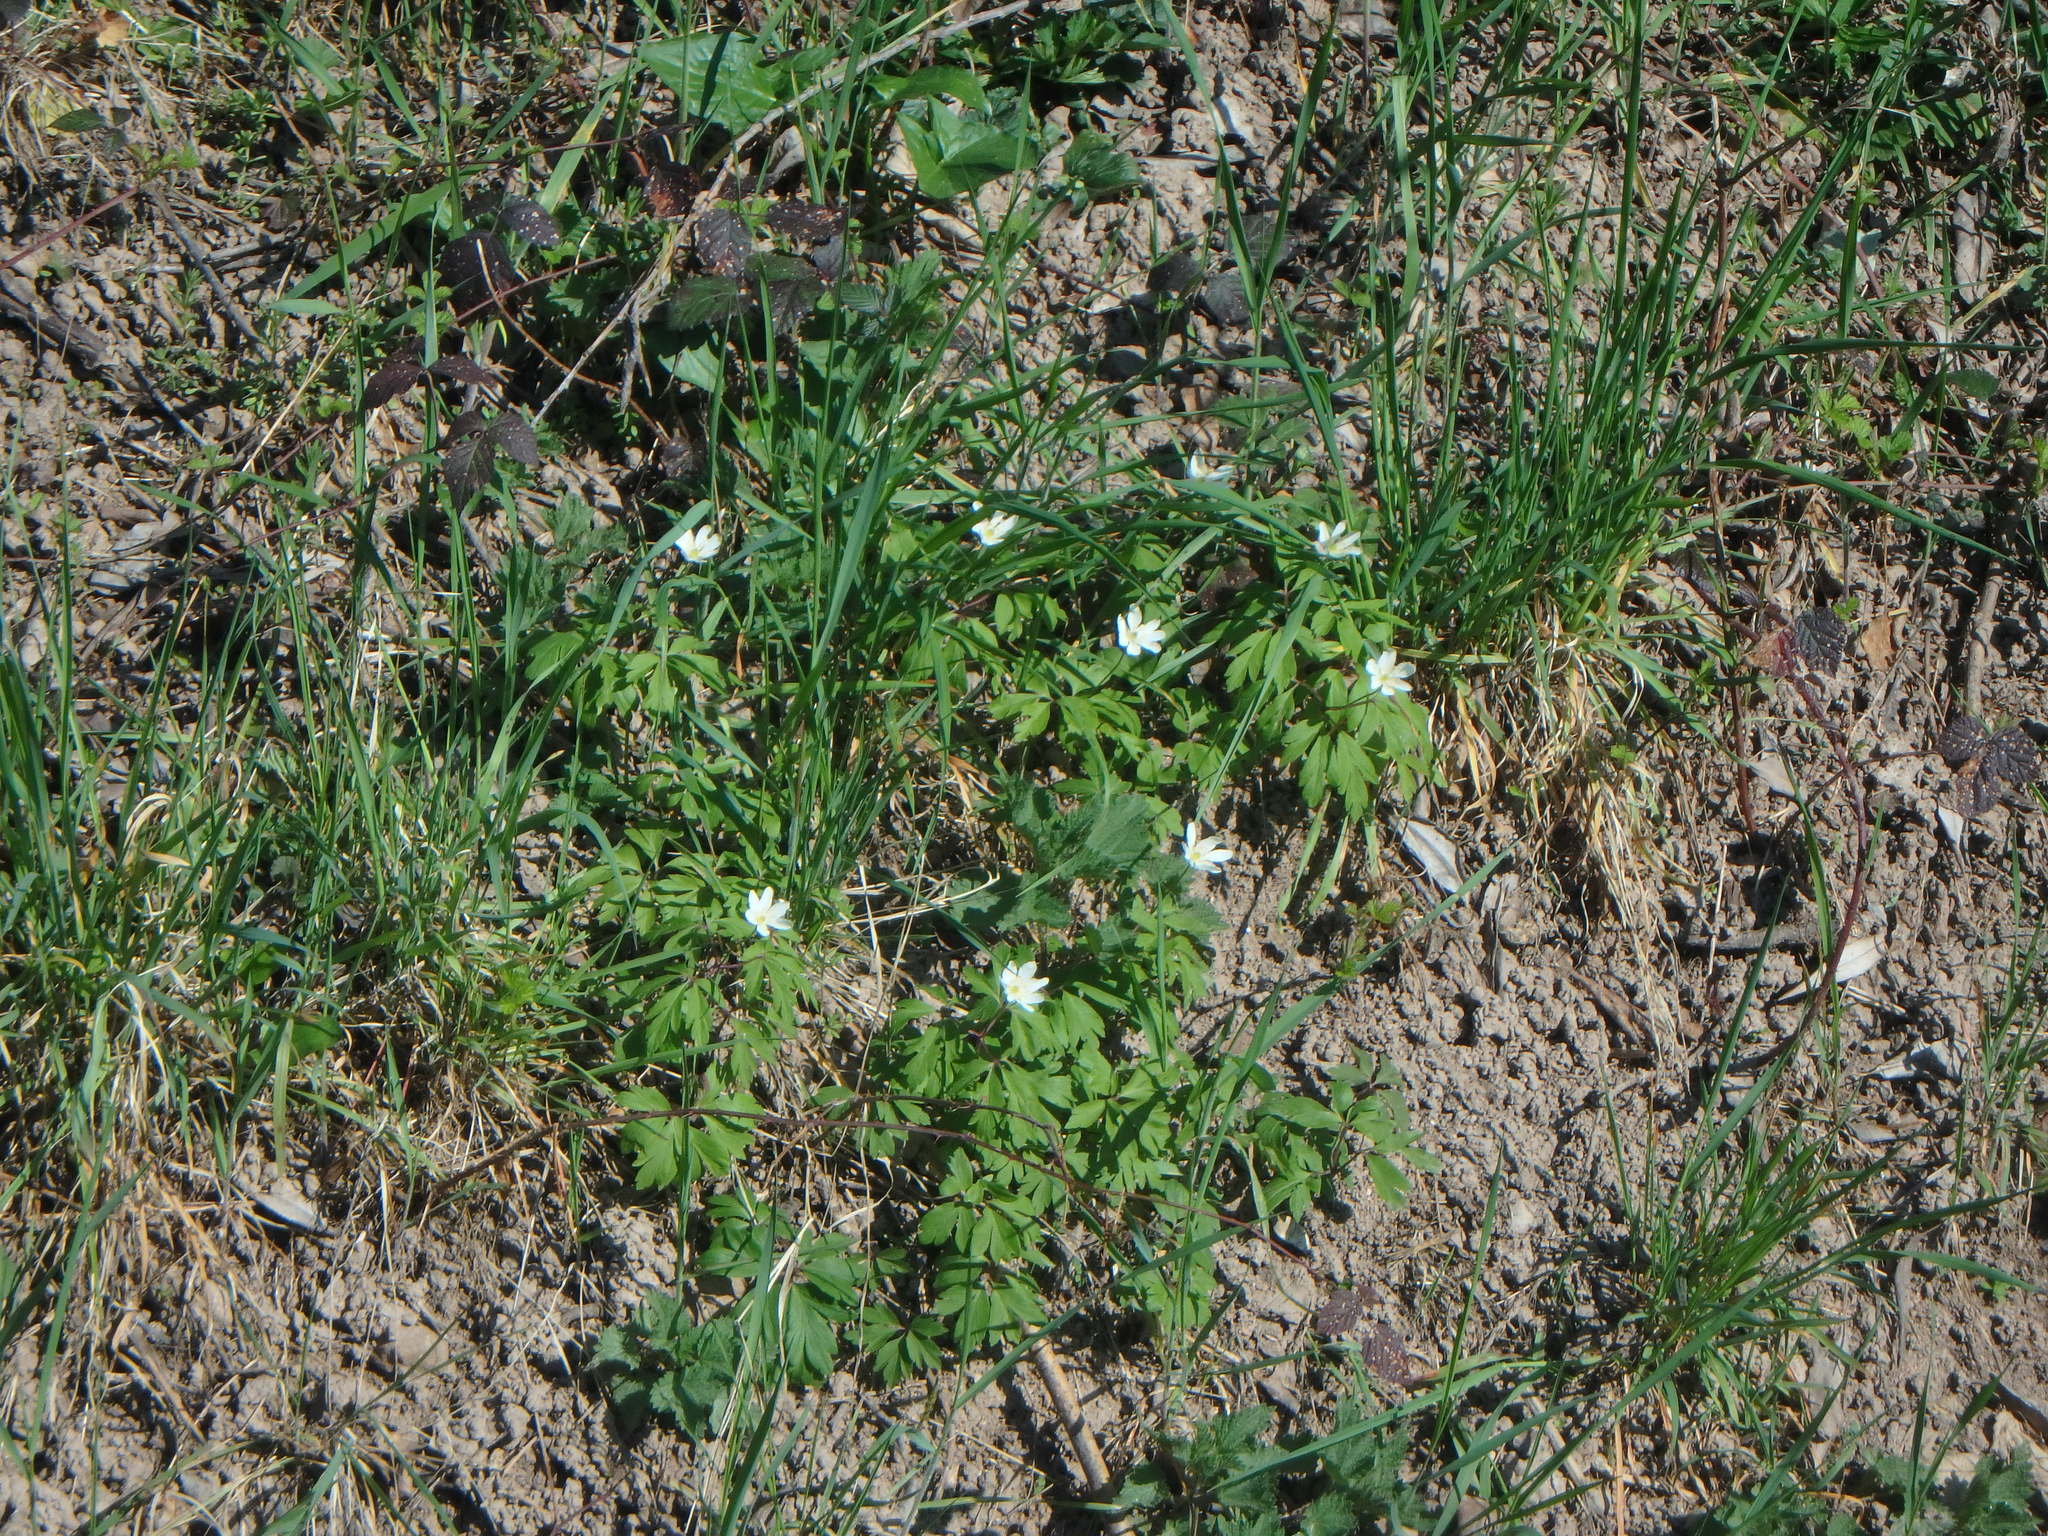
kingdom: Plantae
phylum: Tracheophyta
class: Magnoliopsida
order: Ranunculales
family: Ranunculaceae
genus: Anemone
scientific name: Anemone nemorosa
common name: Wood anemone
